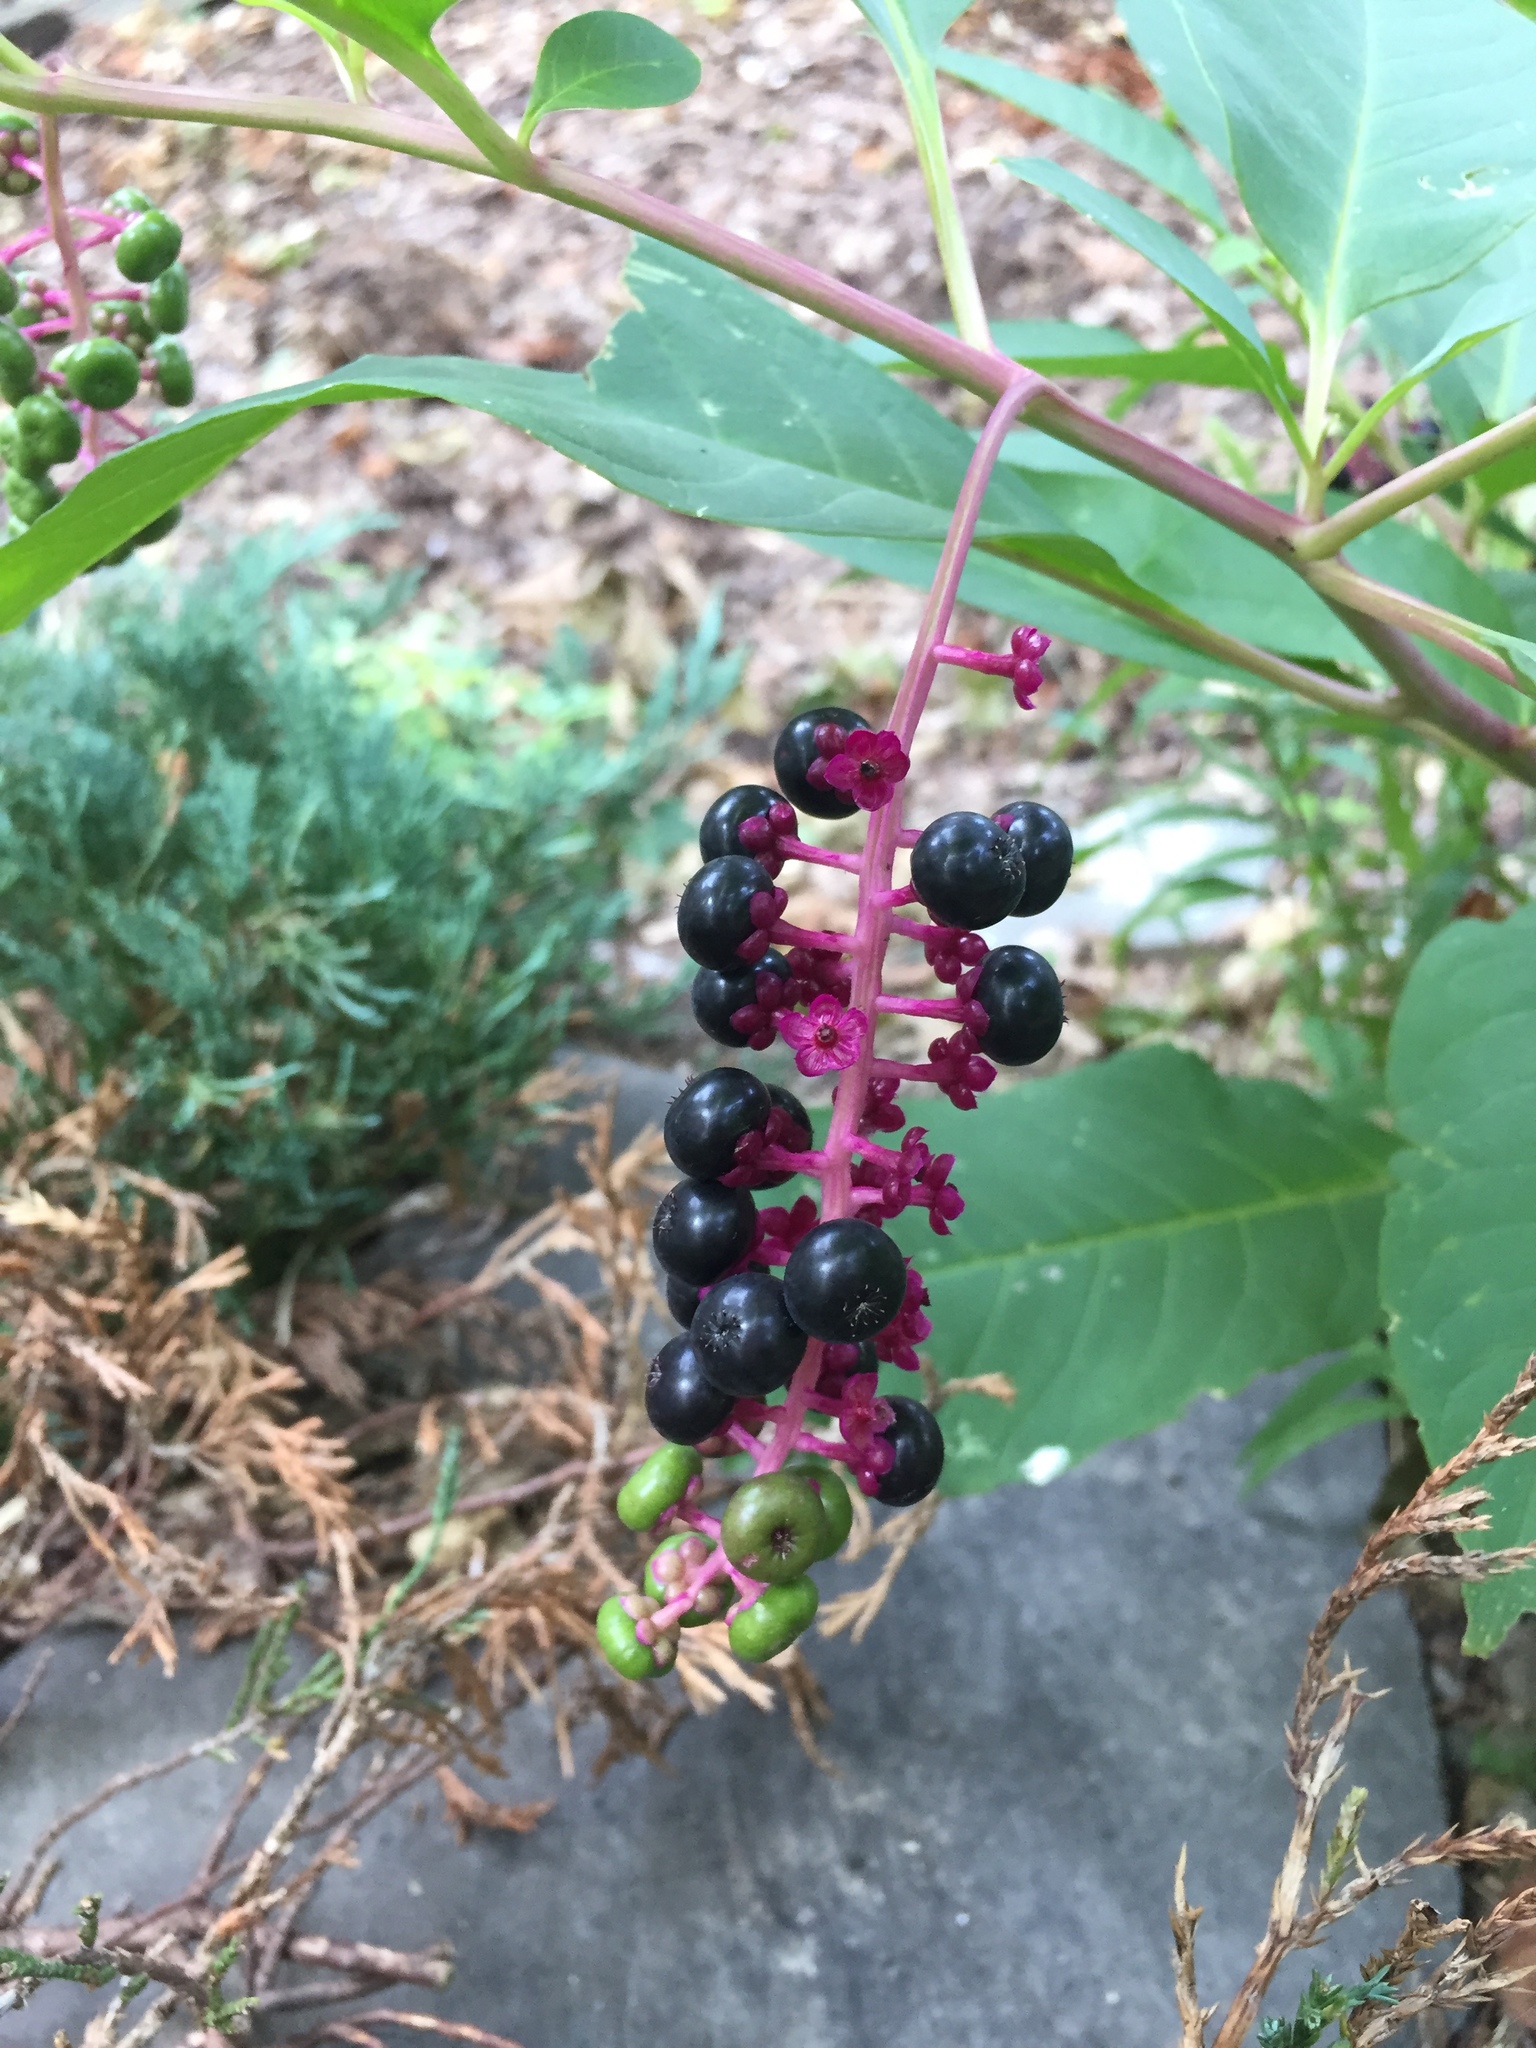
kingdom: Plantae
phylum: Tracheophyta
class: Magnoliopsida
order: Caryophyllales
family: Phytolaccaceae
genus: Phytolacca
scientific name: Phytolacca americana
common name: American pokeweed
